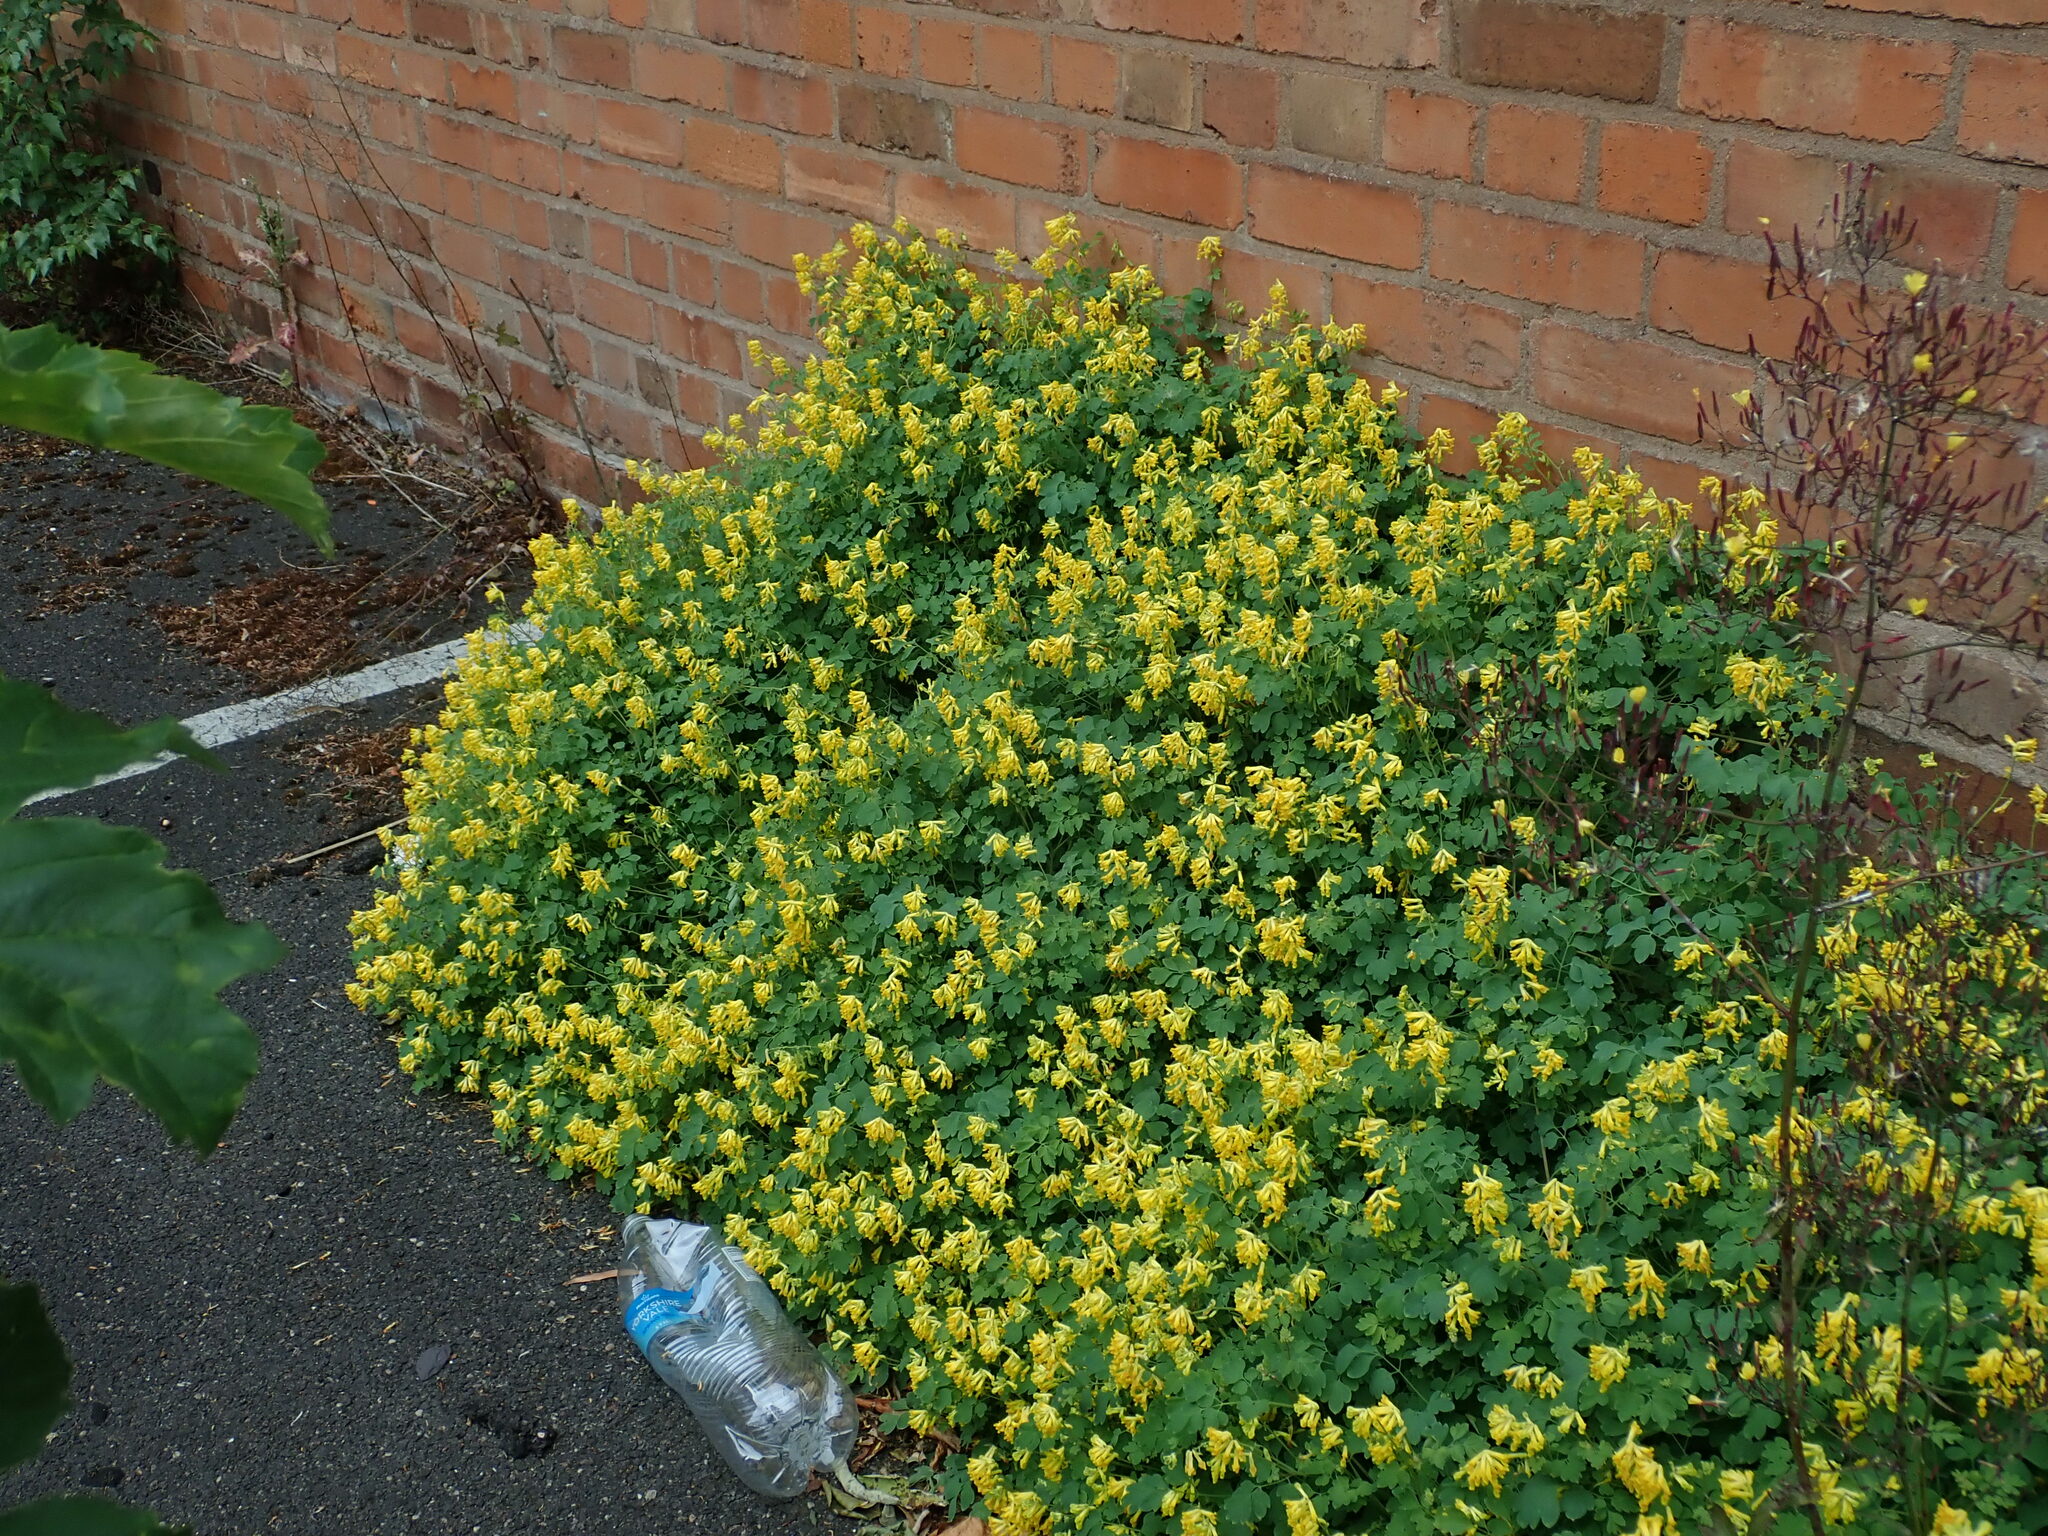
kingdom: Plantae
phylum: Tracheophyta
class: Magnoliopsida
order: Ranunculales
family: Papaveraceae
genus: Pseudofumaria
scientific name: Pseudofumaria lutea
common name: Yellow corydalis
